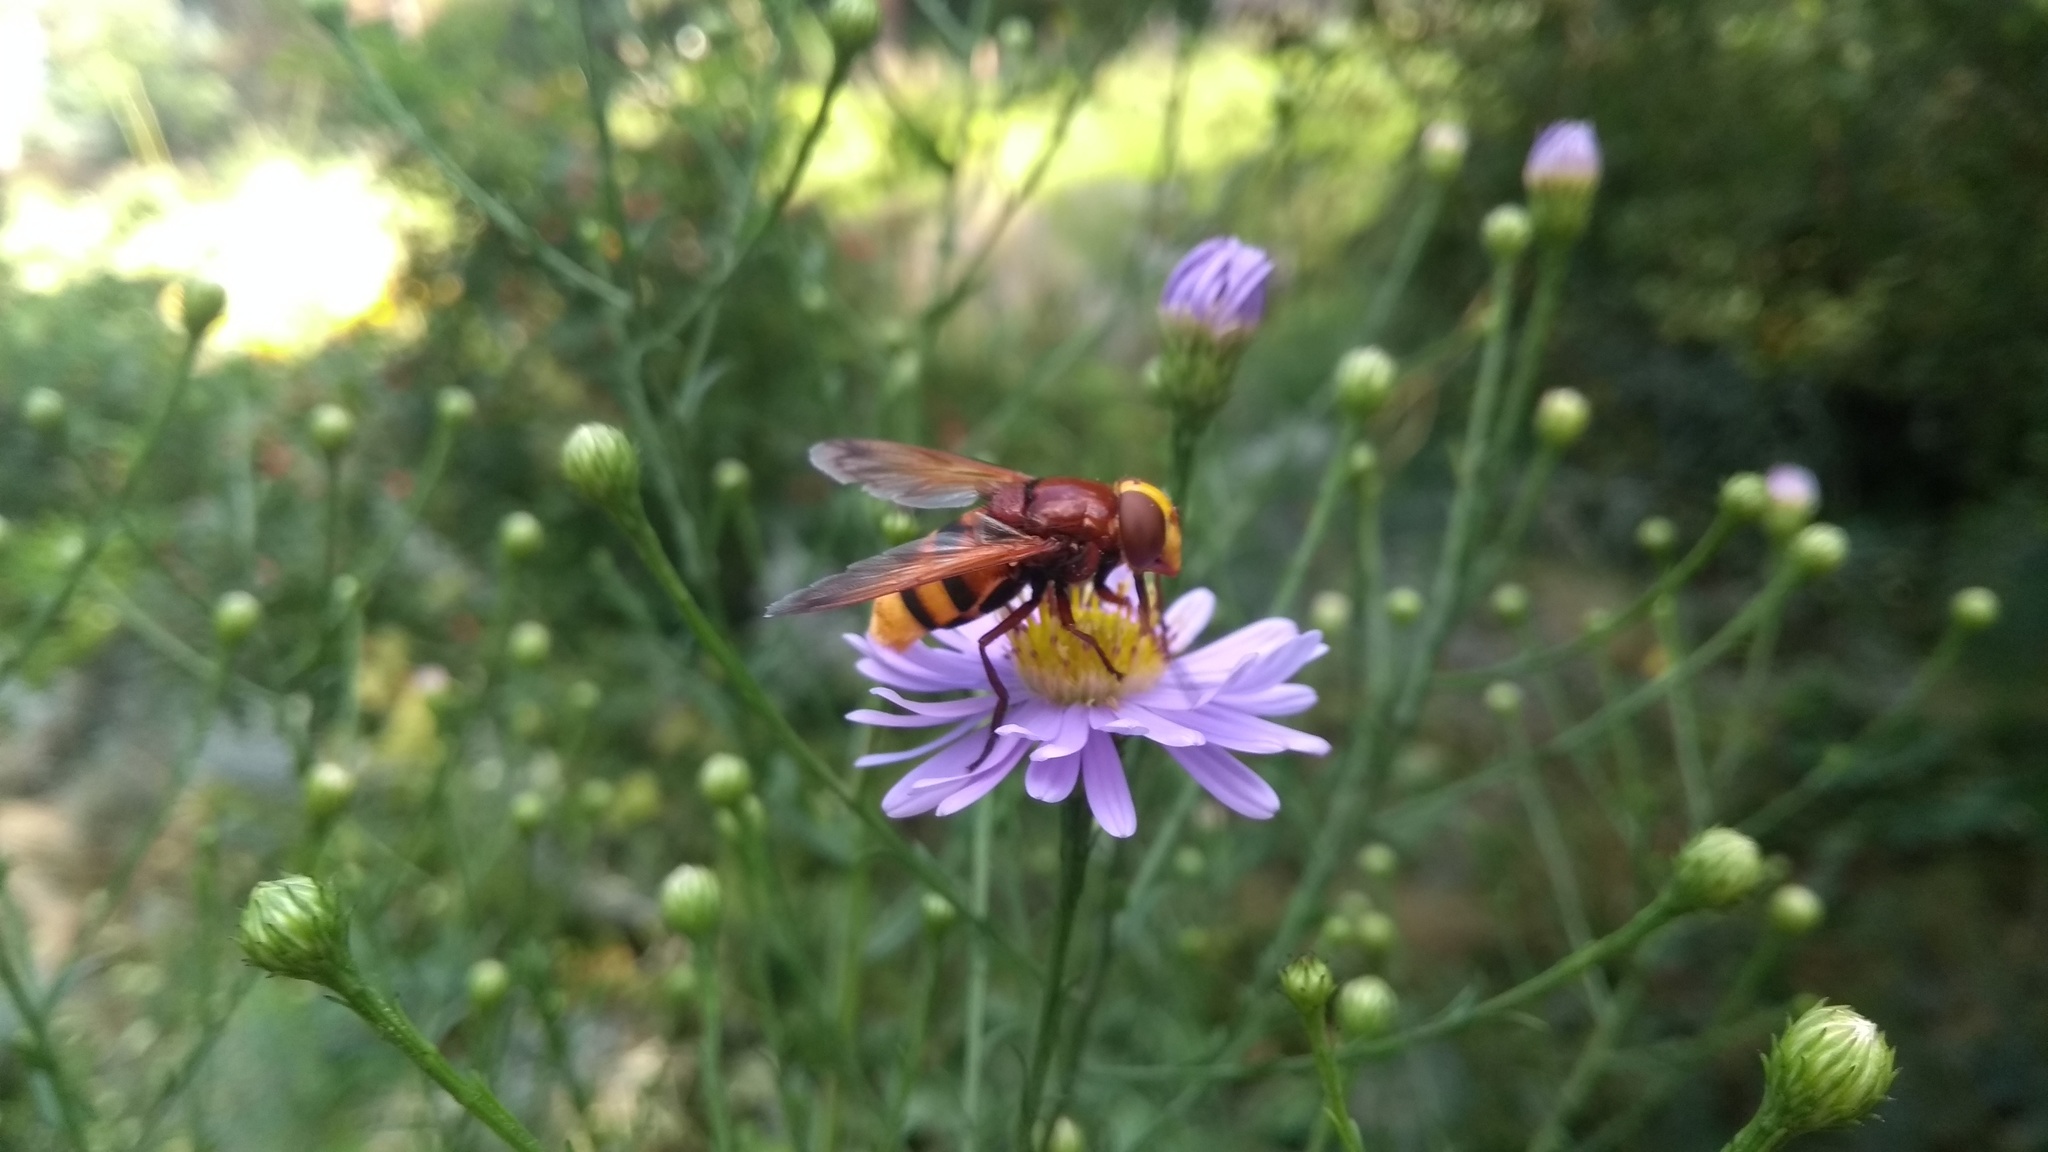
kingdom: Animalia
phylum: Arthropoda
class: Insecta
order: Diptera
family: Syrphidae
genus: Volucella
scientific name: Volucella zonaria
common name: Hornet hoverfly
